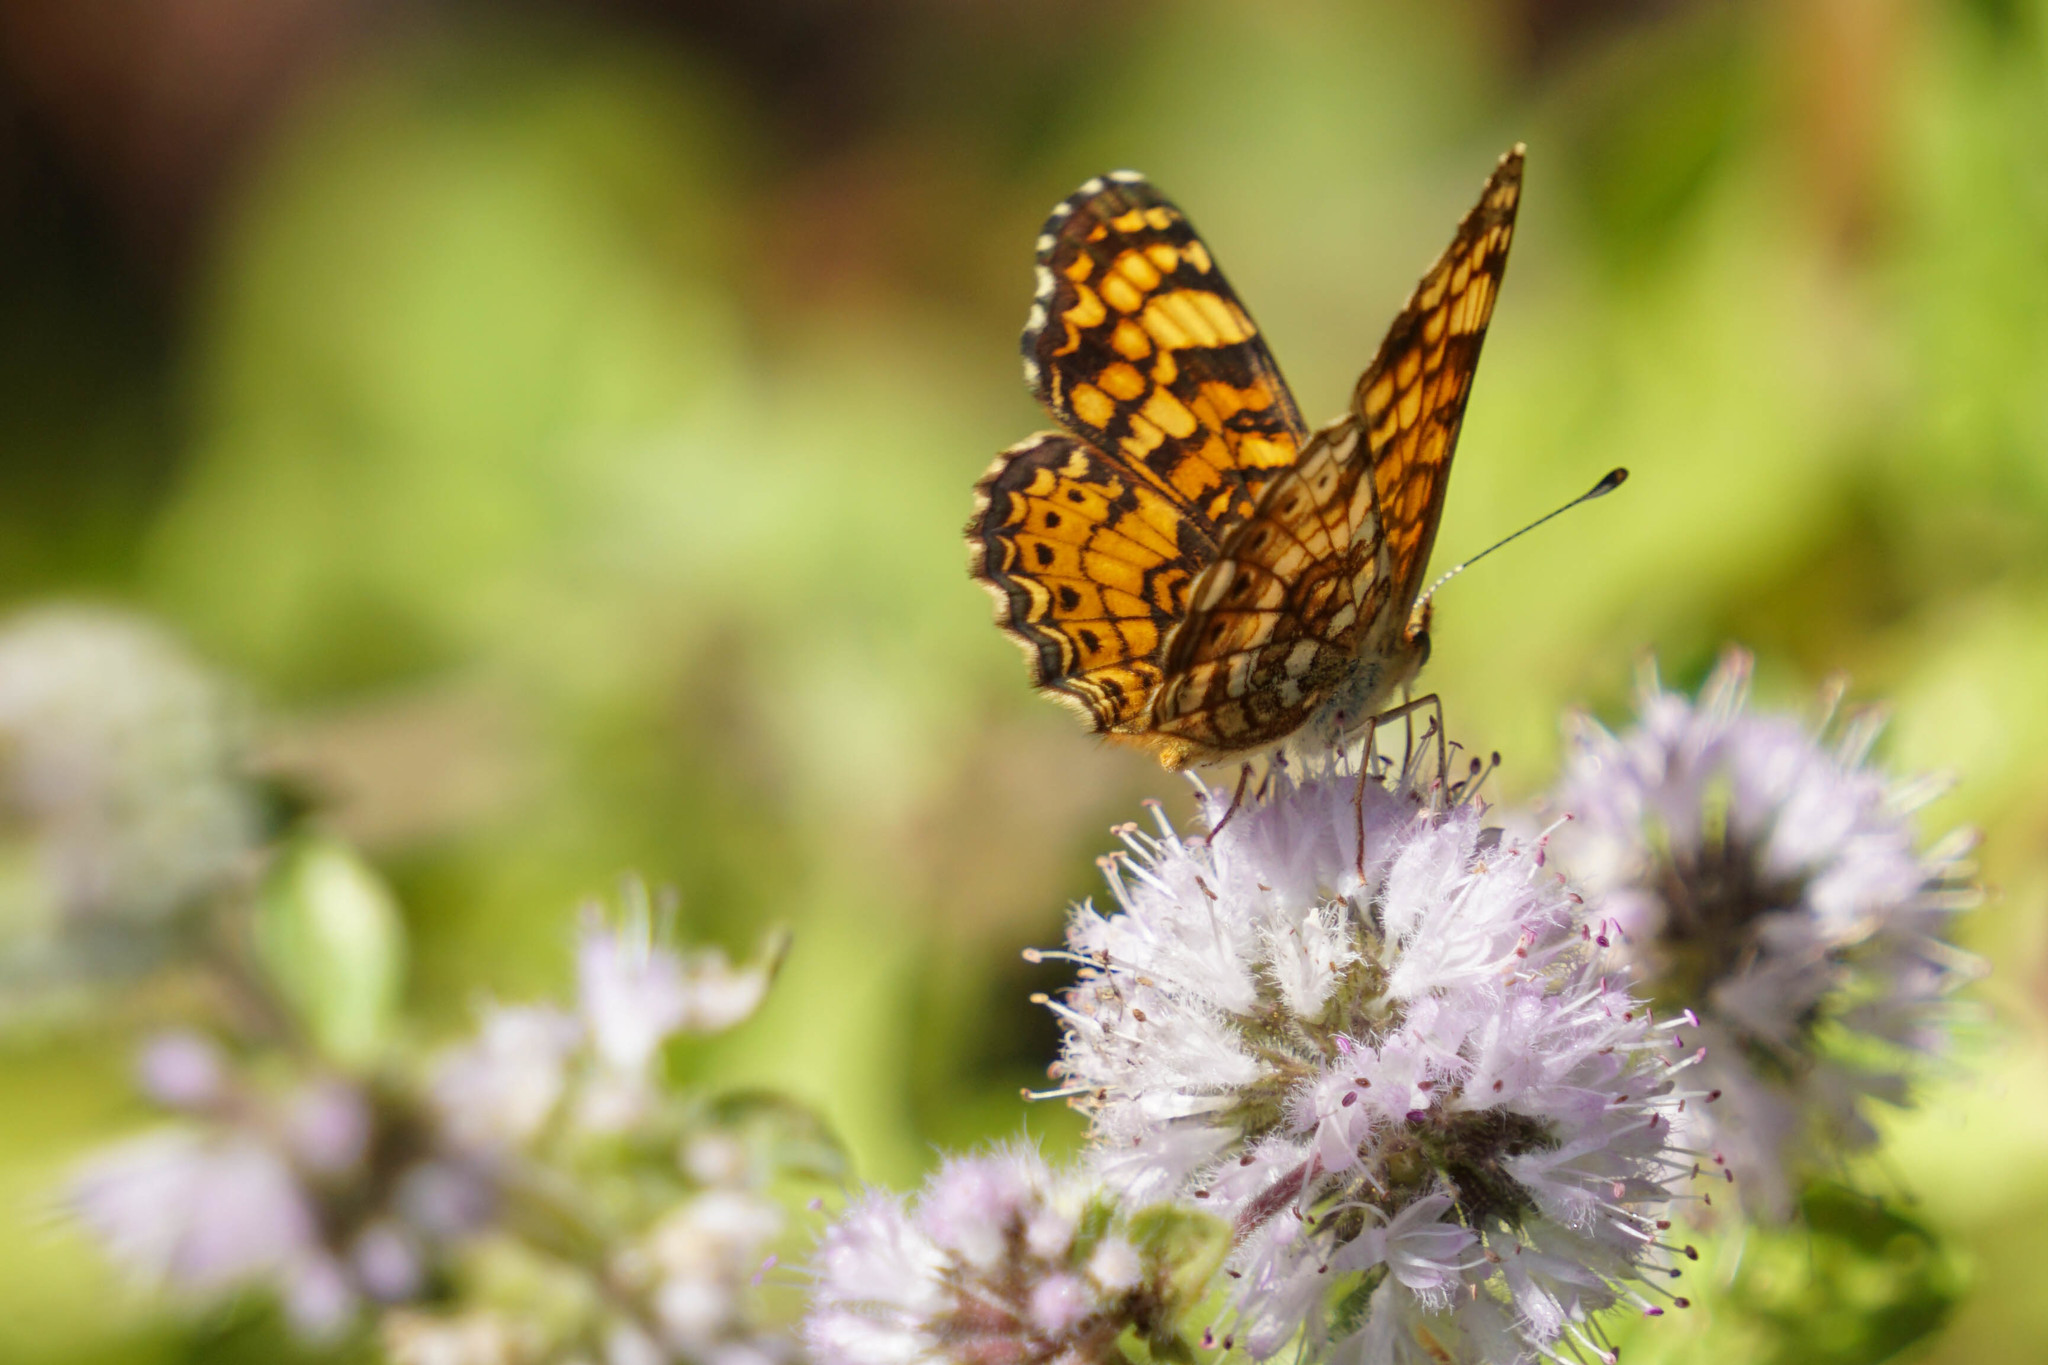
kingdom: Animalia
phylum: Arthropoda
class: Insecta
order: Lepidoptera
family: Nymphalidae
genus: Eresia
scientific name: Eresia aveyrona
